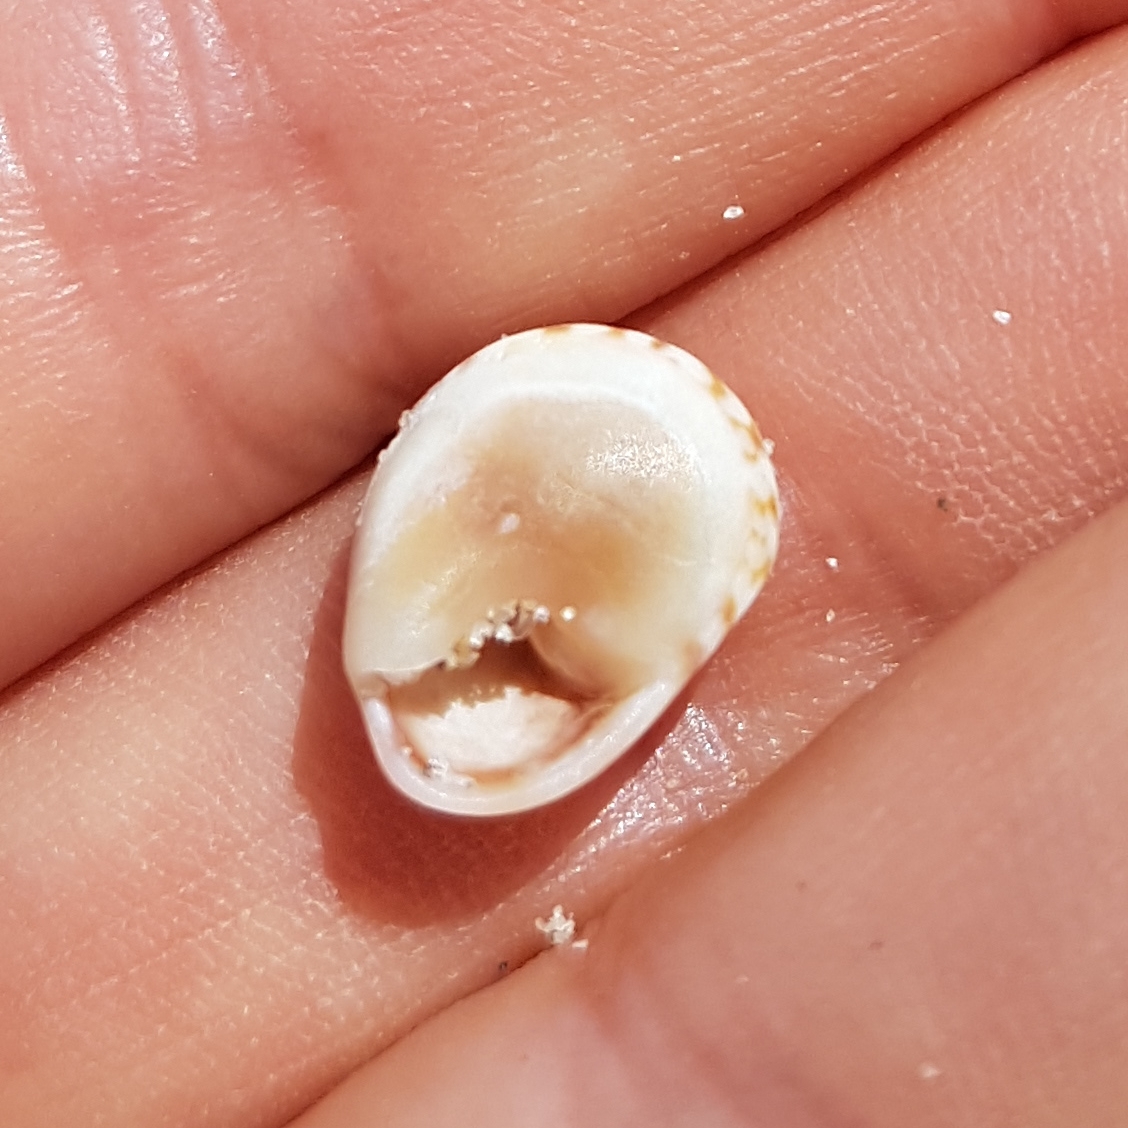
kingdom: Animalia
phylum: Mollusca
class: Gastropoda
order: Neogastropoda
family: Nassariidae
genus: Tritia
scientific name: Tritia neritea
